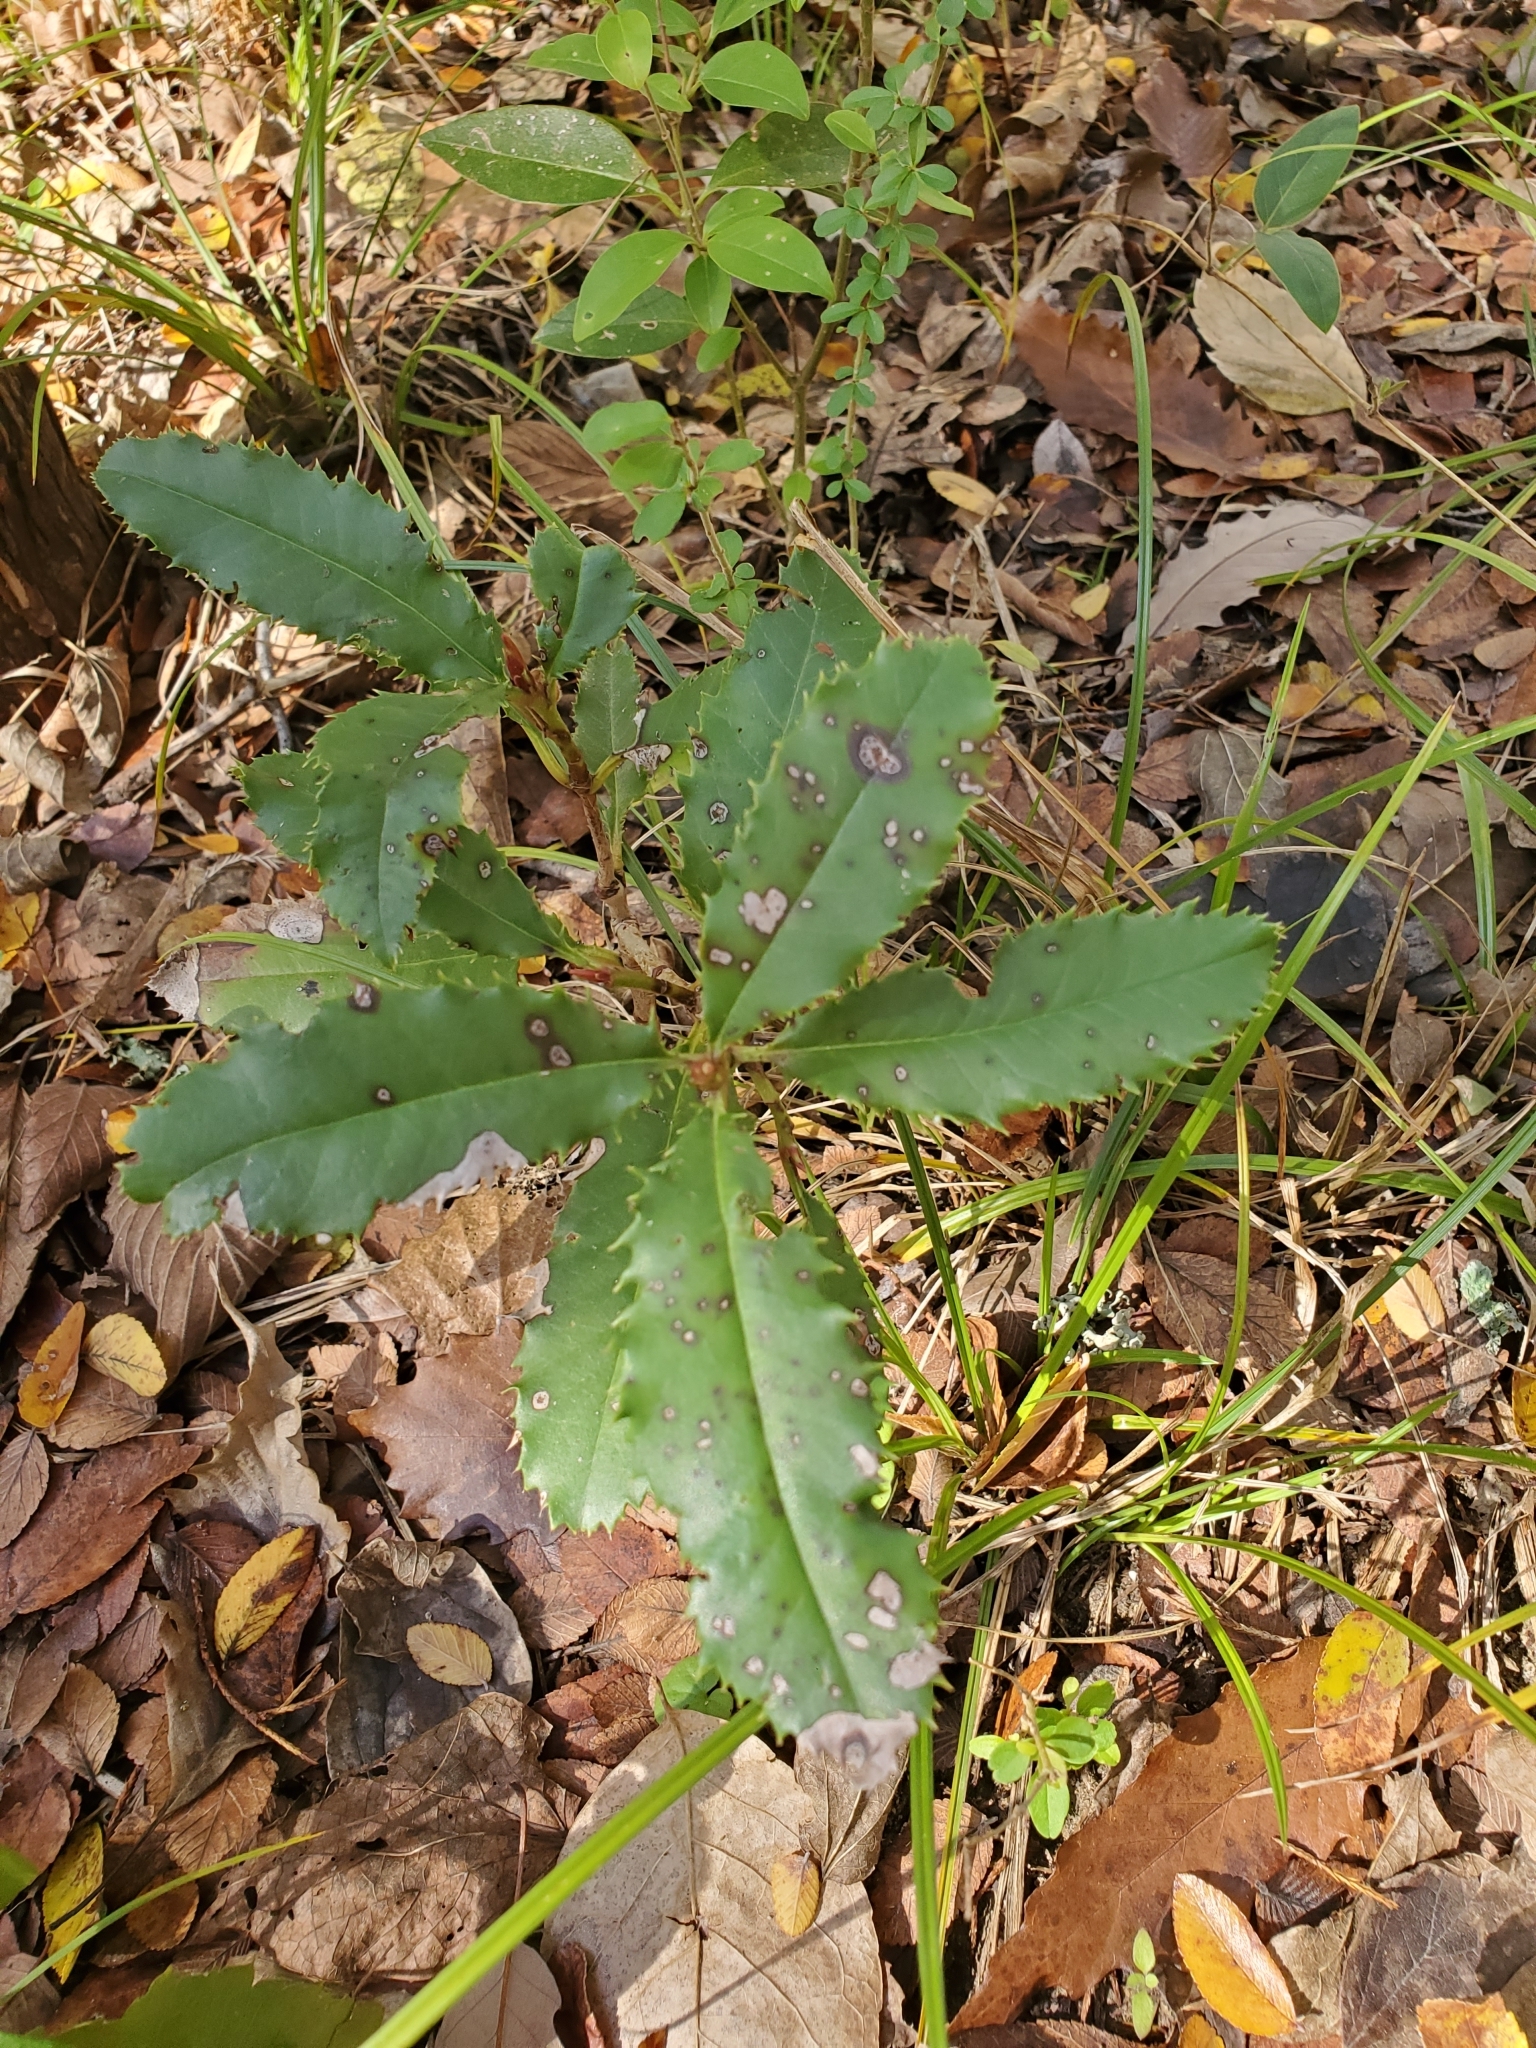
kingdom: Plantae
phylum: Tracheophyta
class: Magnoliopsida
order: Rosales
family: Rosaceae
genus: Photinia
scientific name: Photinia serratifolia
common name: Taiwanese photinia
